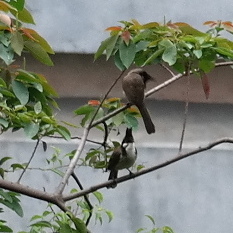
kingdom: Animalia
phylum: Chordata
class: Aves
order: Passeriformes
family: Pycnonotidae
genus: Pycnonotus
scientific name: Pycnonotus jocosus
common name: Red-whiskered bulbul
